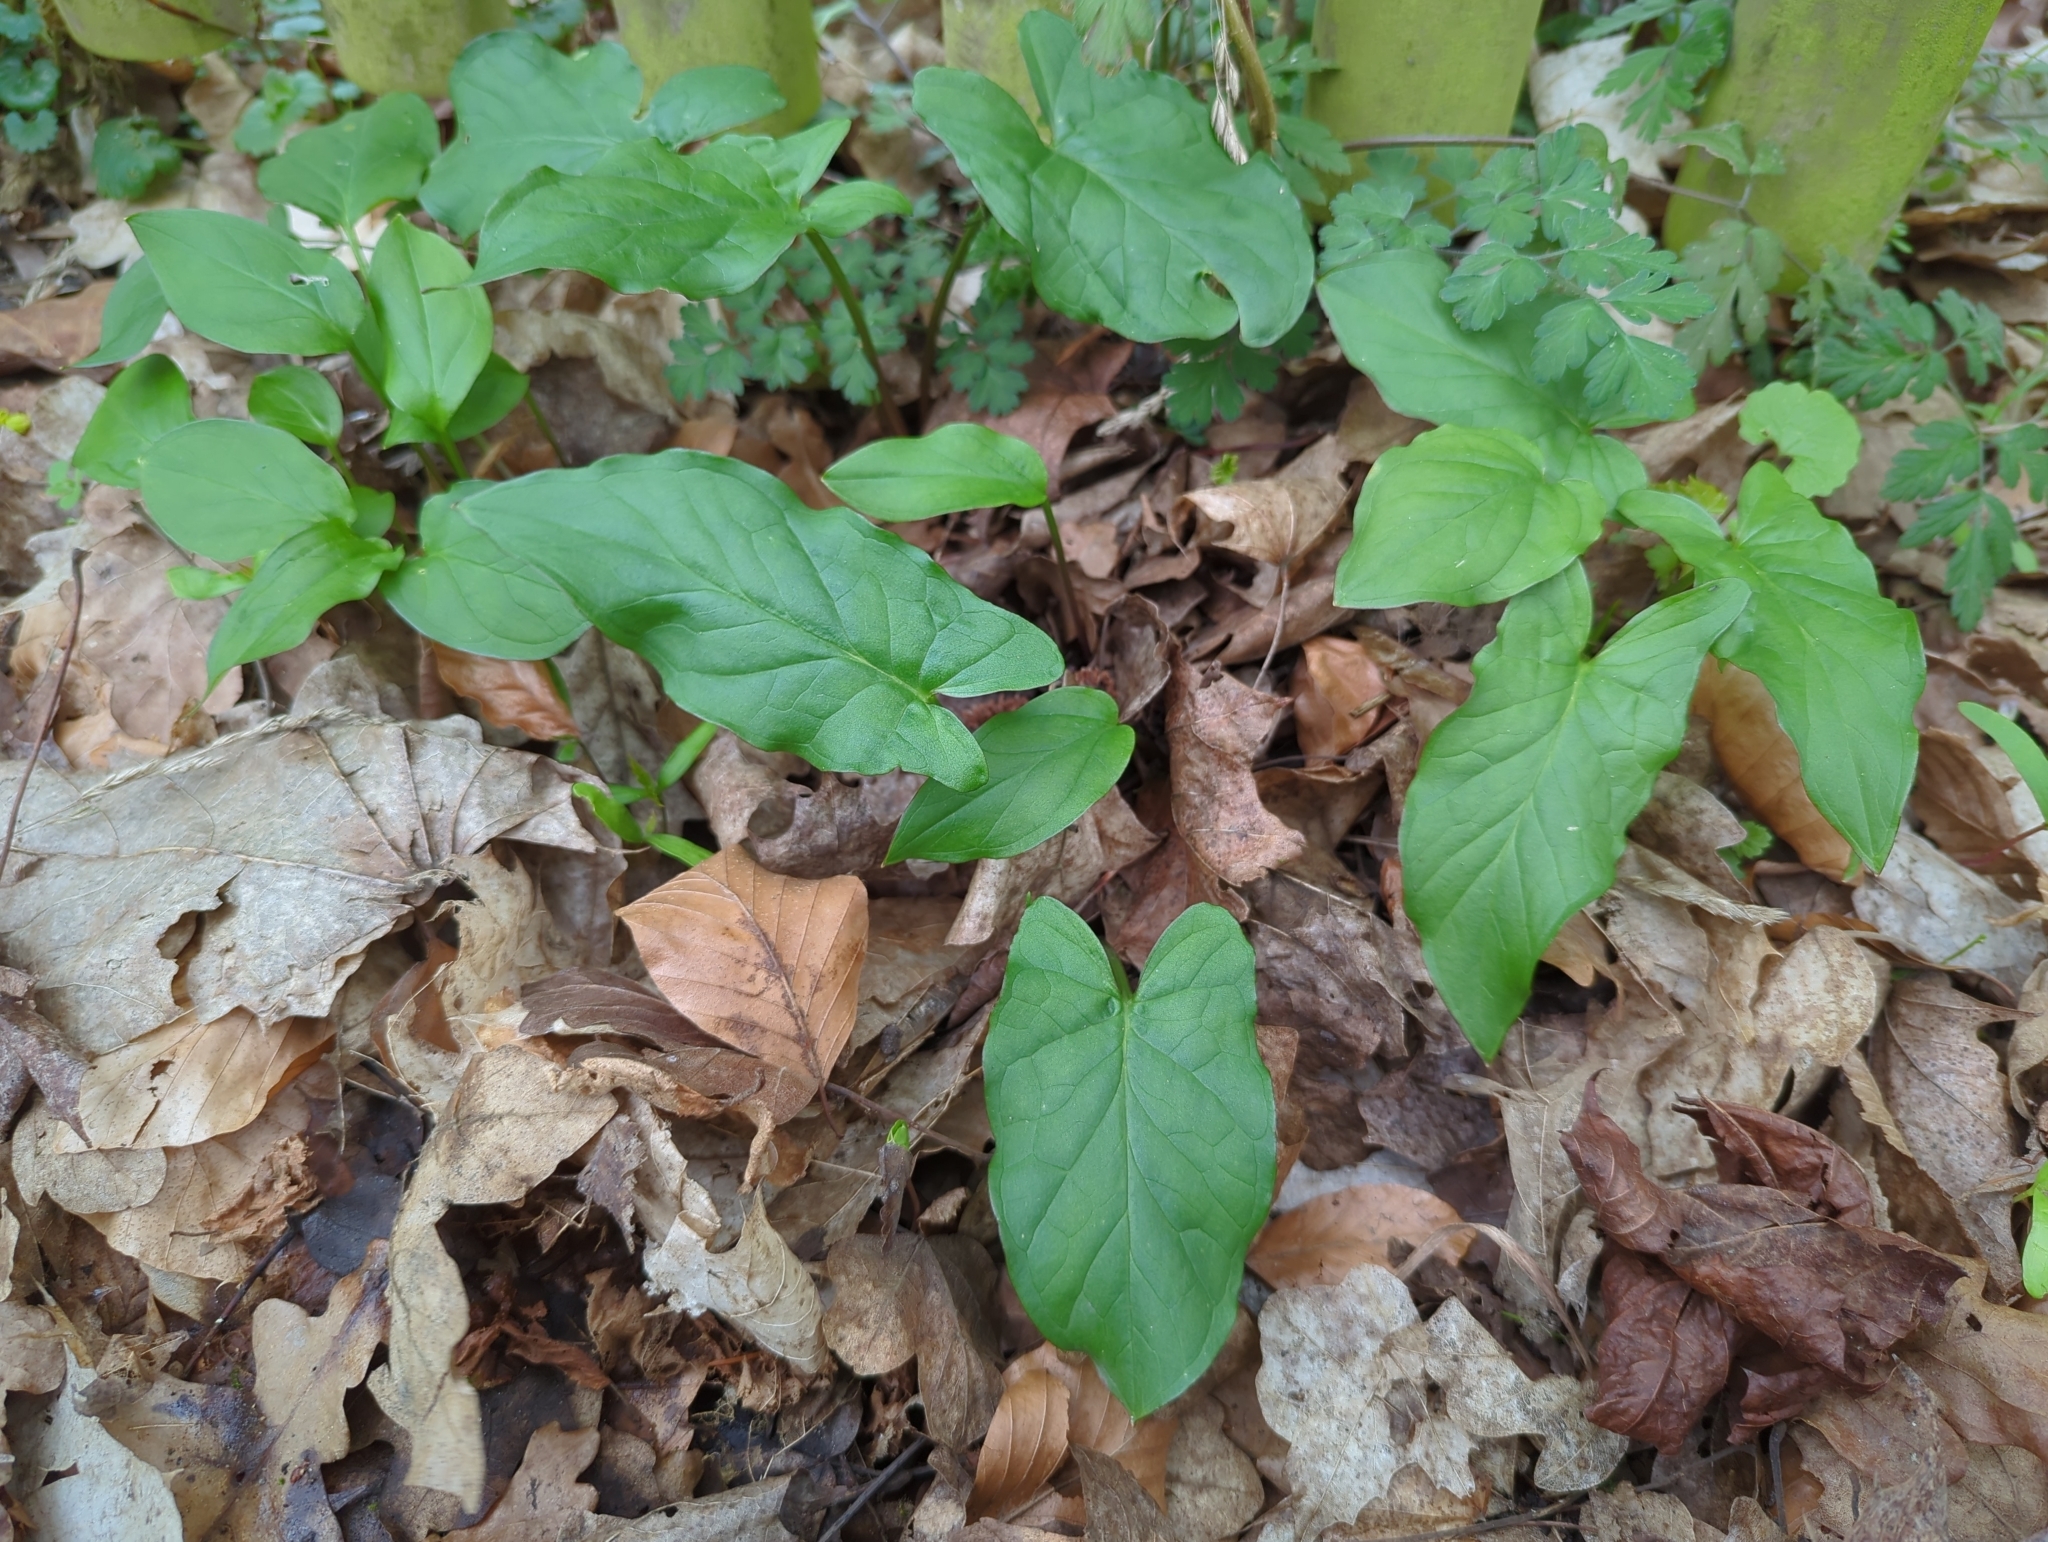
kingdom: Plantae
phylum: Tracheophyta
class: Liliopsida
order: Alismatales
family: Araceae
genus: Arum
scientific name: Arum maculatum
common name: Lords-and-ladies
